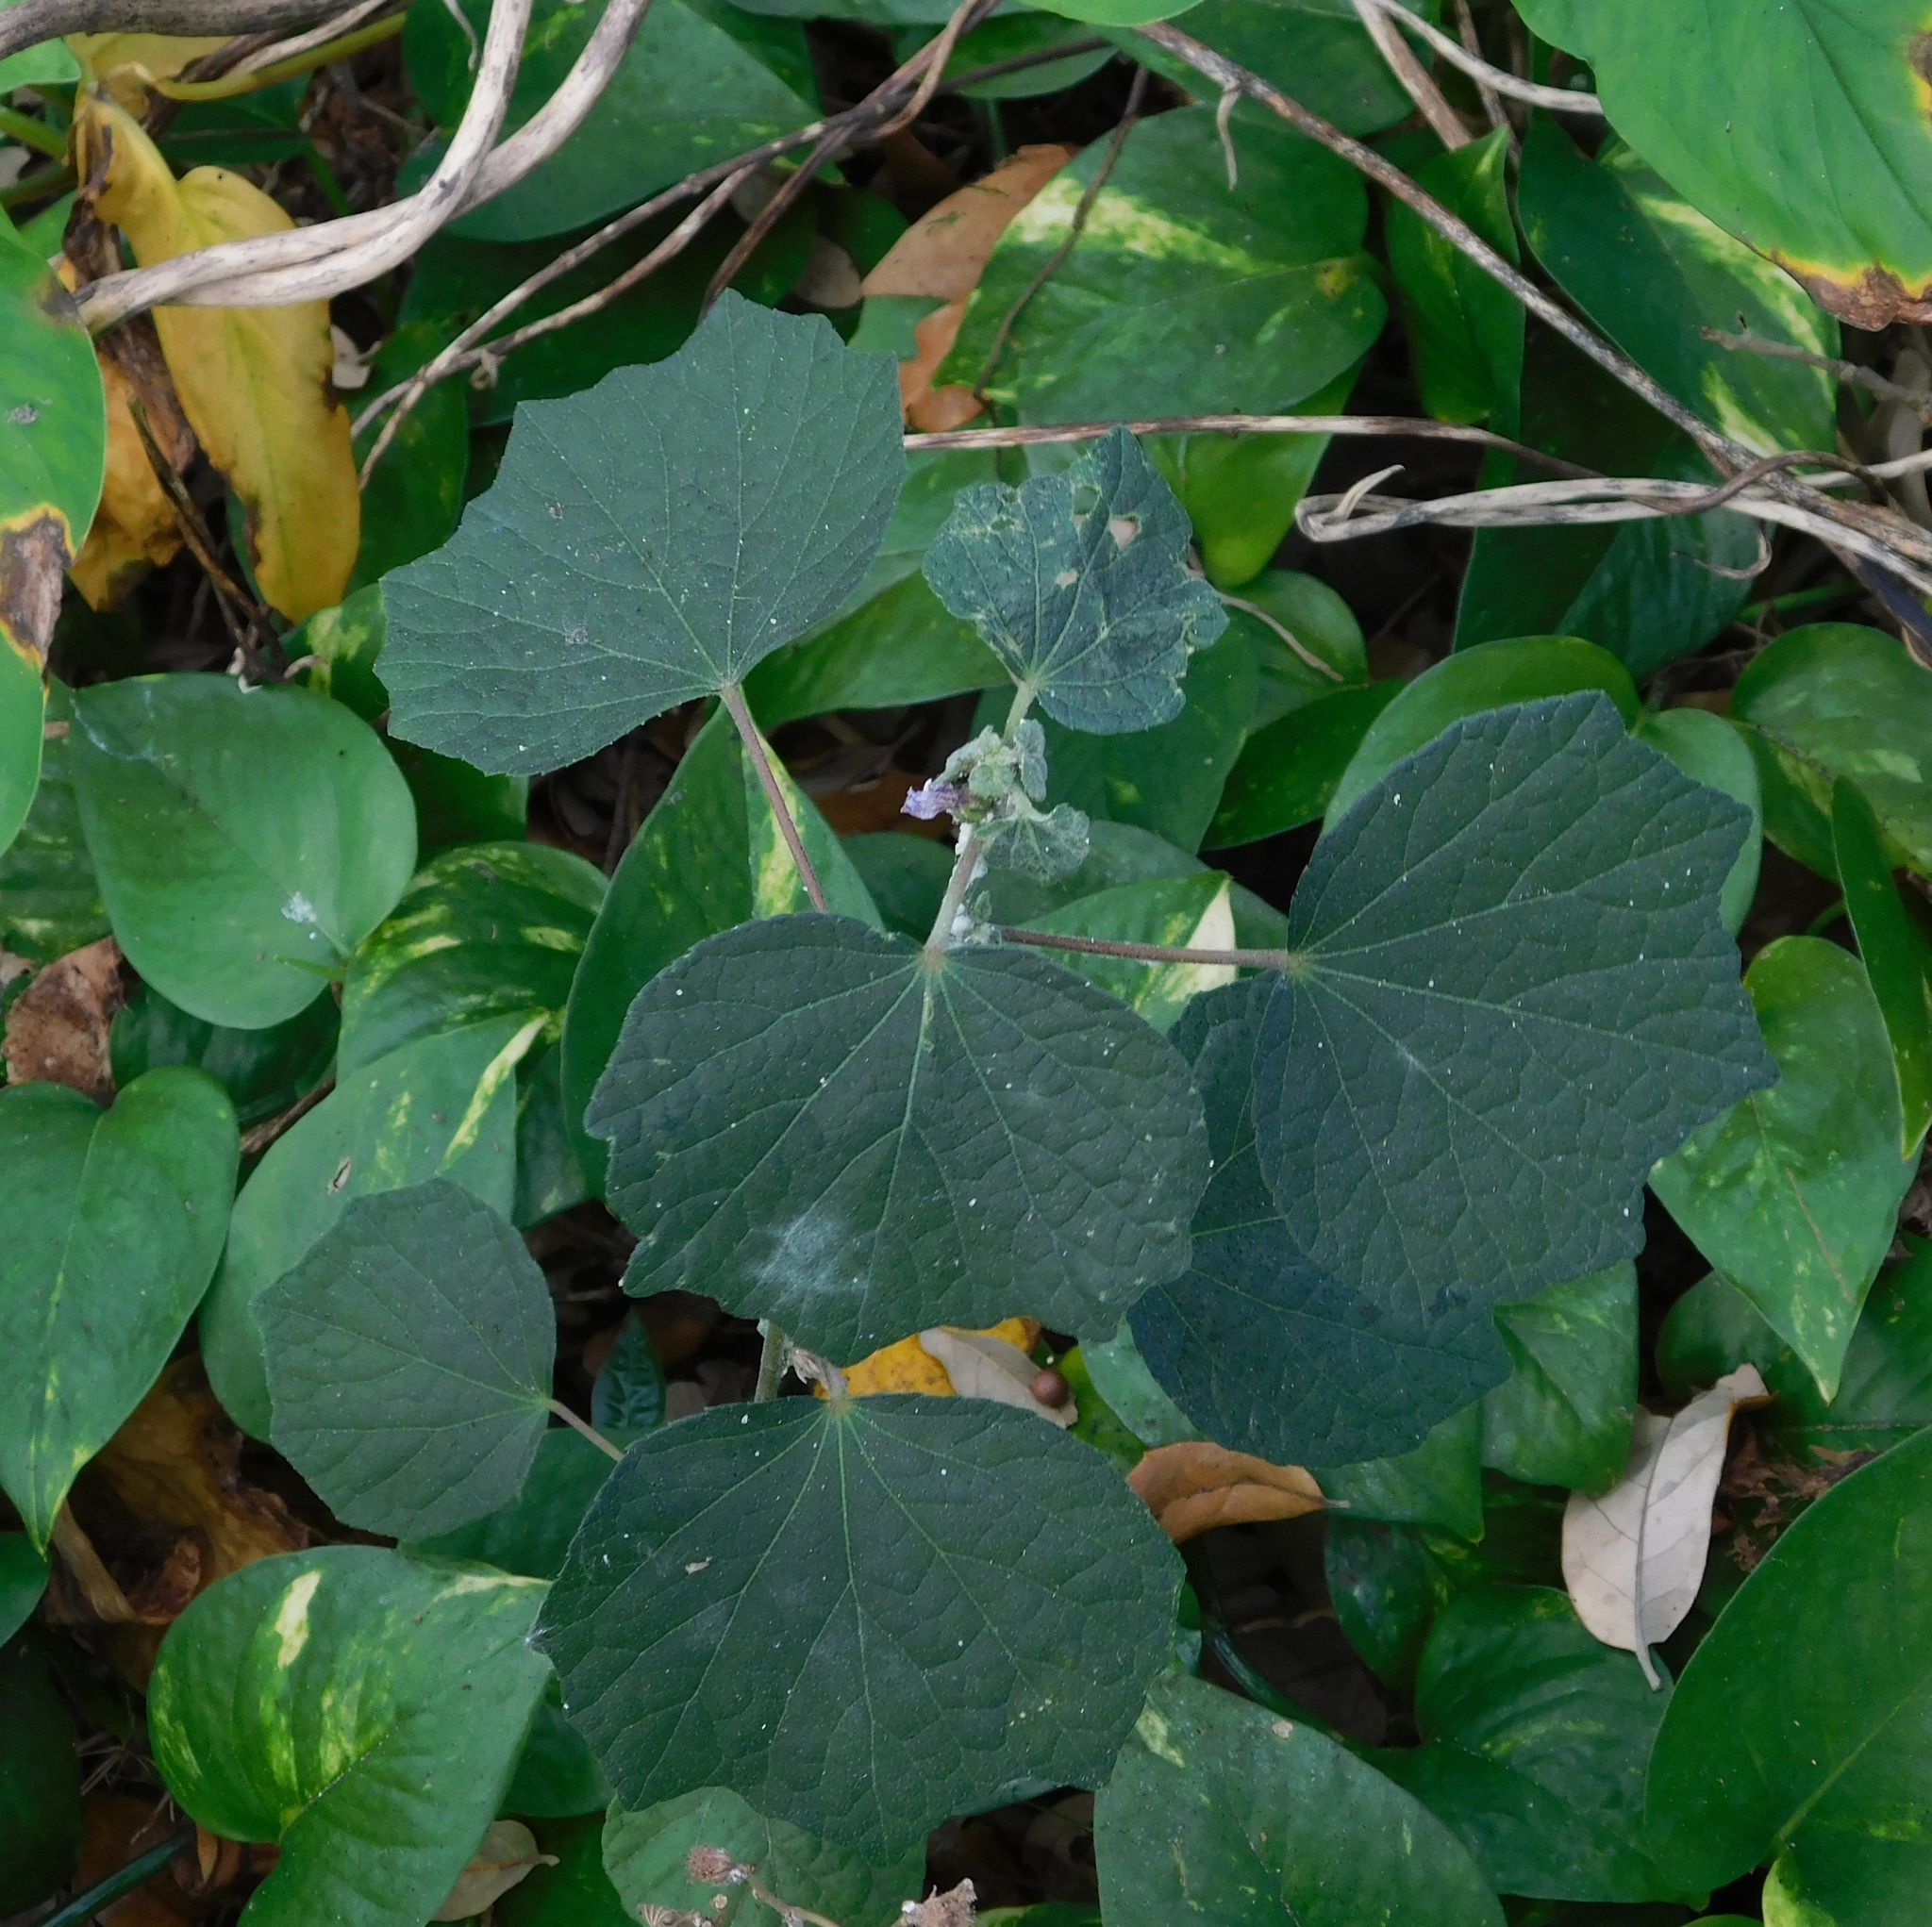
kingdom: Plantae
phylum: Tracheophyta
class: Magnoliopsida
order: Malvales
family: Malvaceae
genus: Urena
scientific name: Urena lobata
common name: Caesarweed
